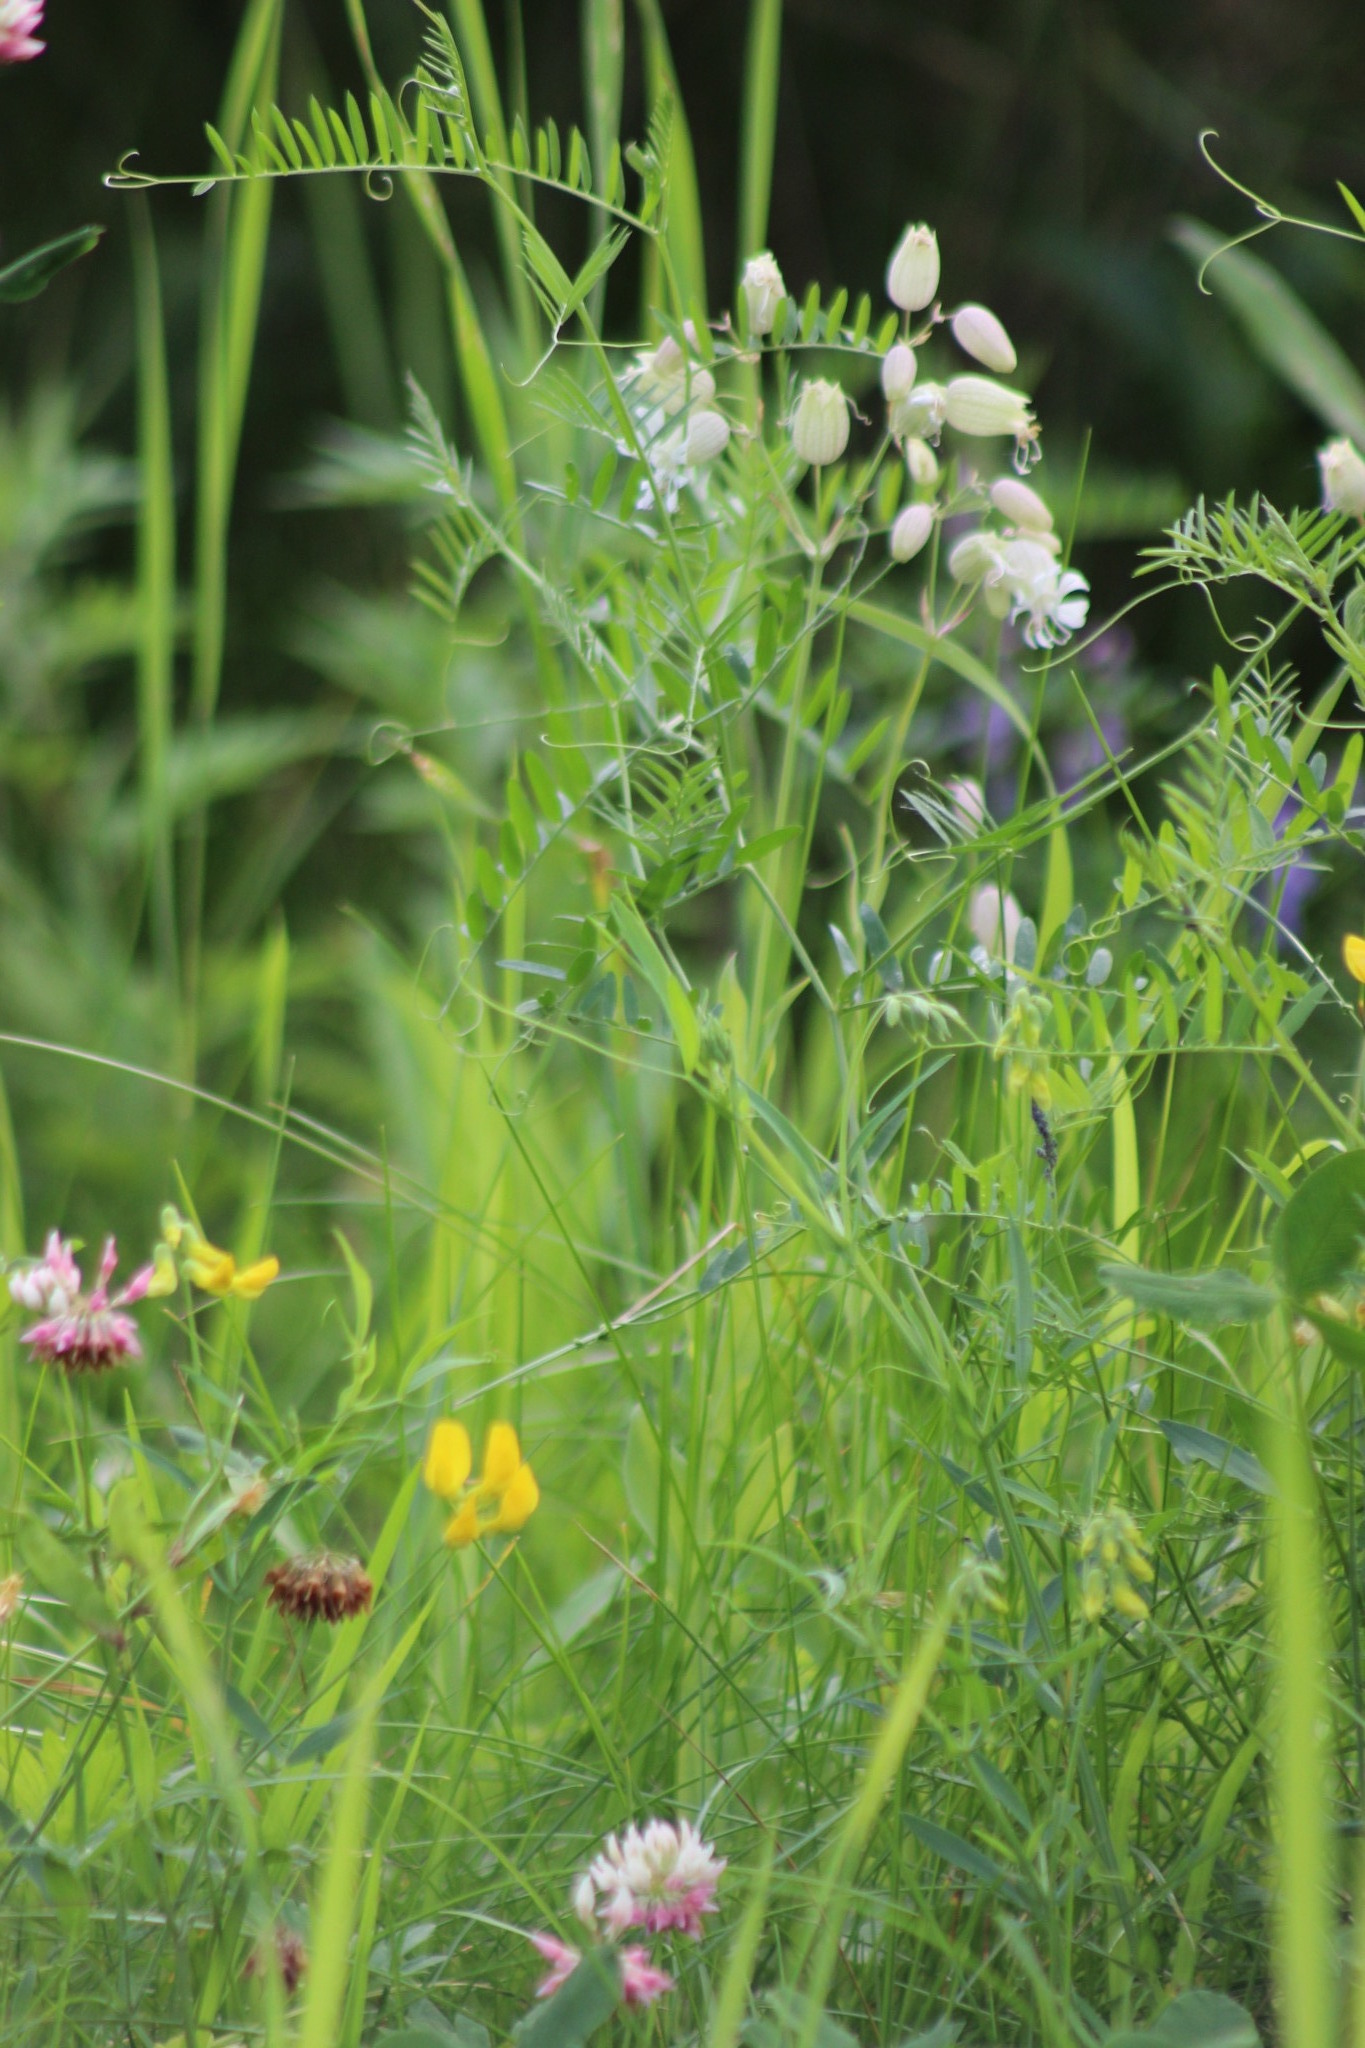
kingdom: Plantae
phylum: Tracheophyta
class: Magnoliopsida
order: Caryophyllales
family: Caryophyllaceae
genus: Silene
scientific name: Silene vulgaris
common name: Bladder campion
